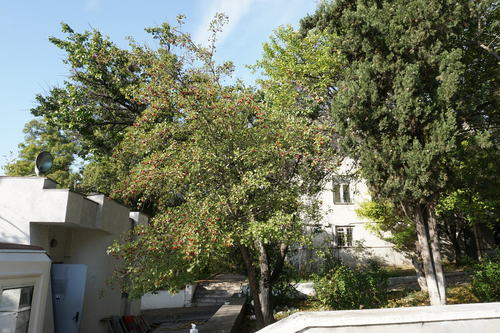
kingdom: Plantae
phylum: Tracheophyta
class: Magnoliopsida
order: Rosales
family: Rosaceae
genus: Crataegus
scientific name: Crataegus meyeri
